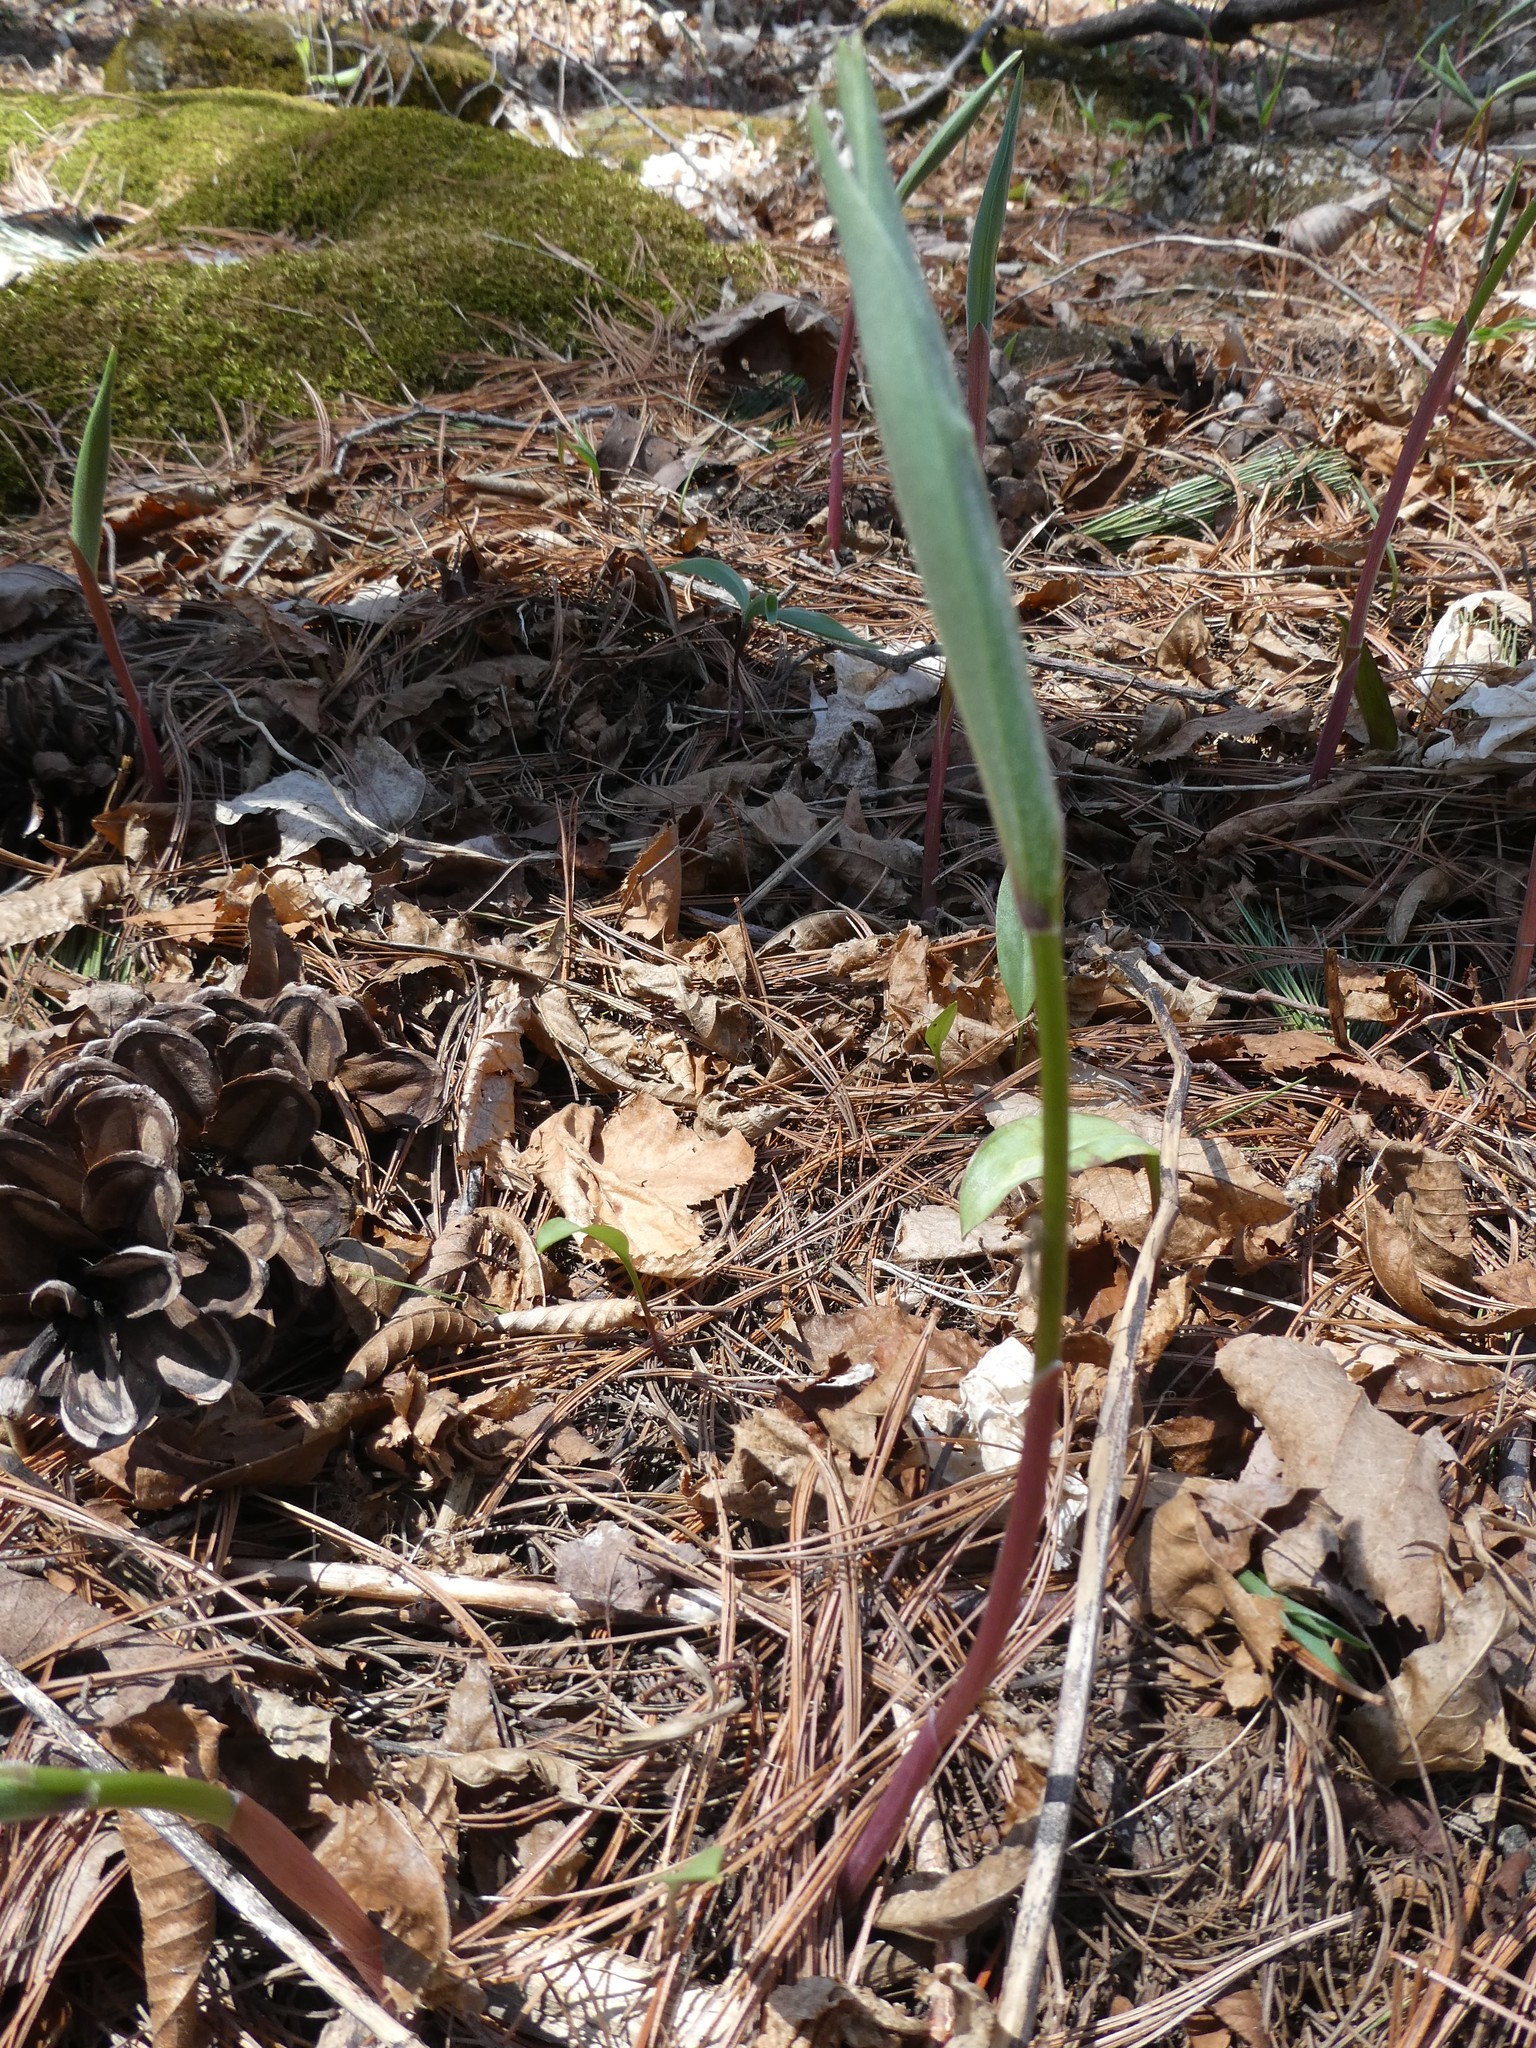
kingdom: Plantae
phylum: Tracheophyta
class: Liliopsida
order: Asparagales
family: Asparagaceae
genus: Maianthemum
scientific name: Maianthemum racemosum
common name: False spikenard
